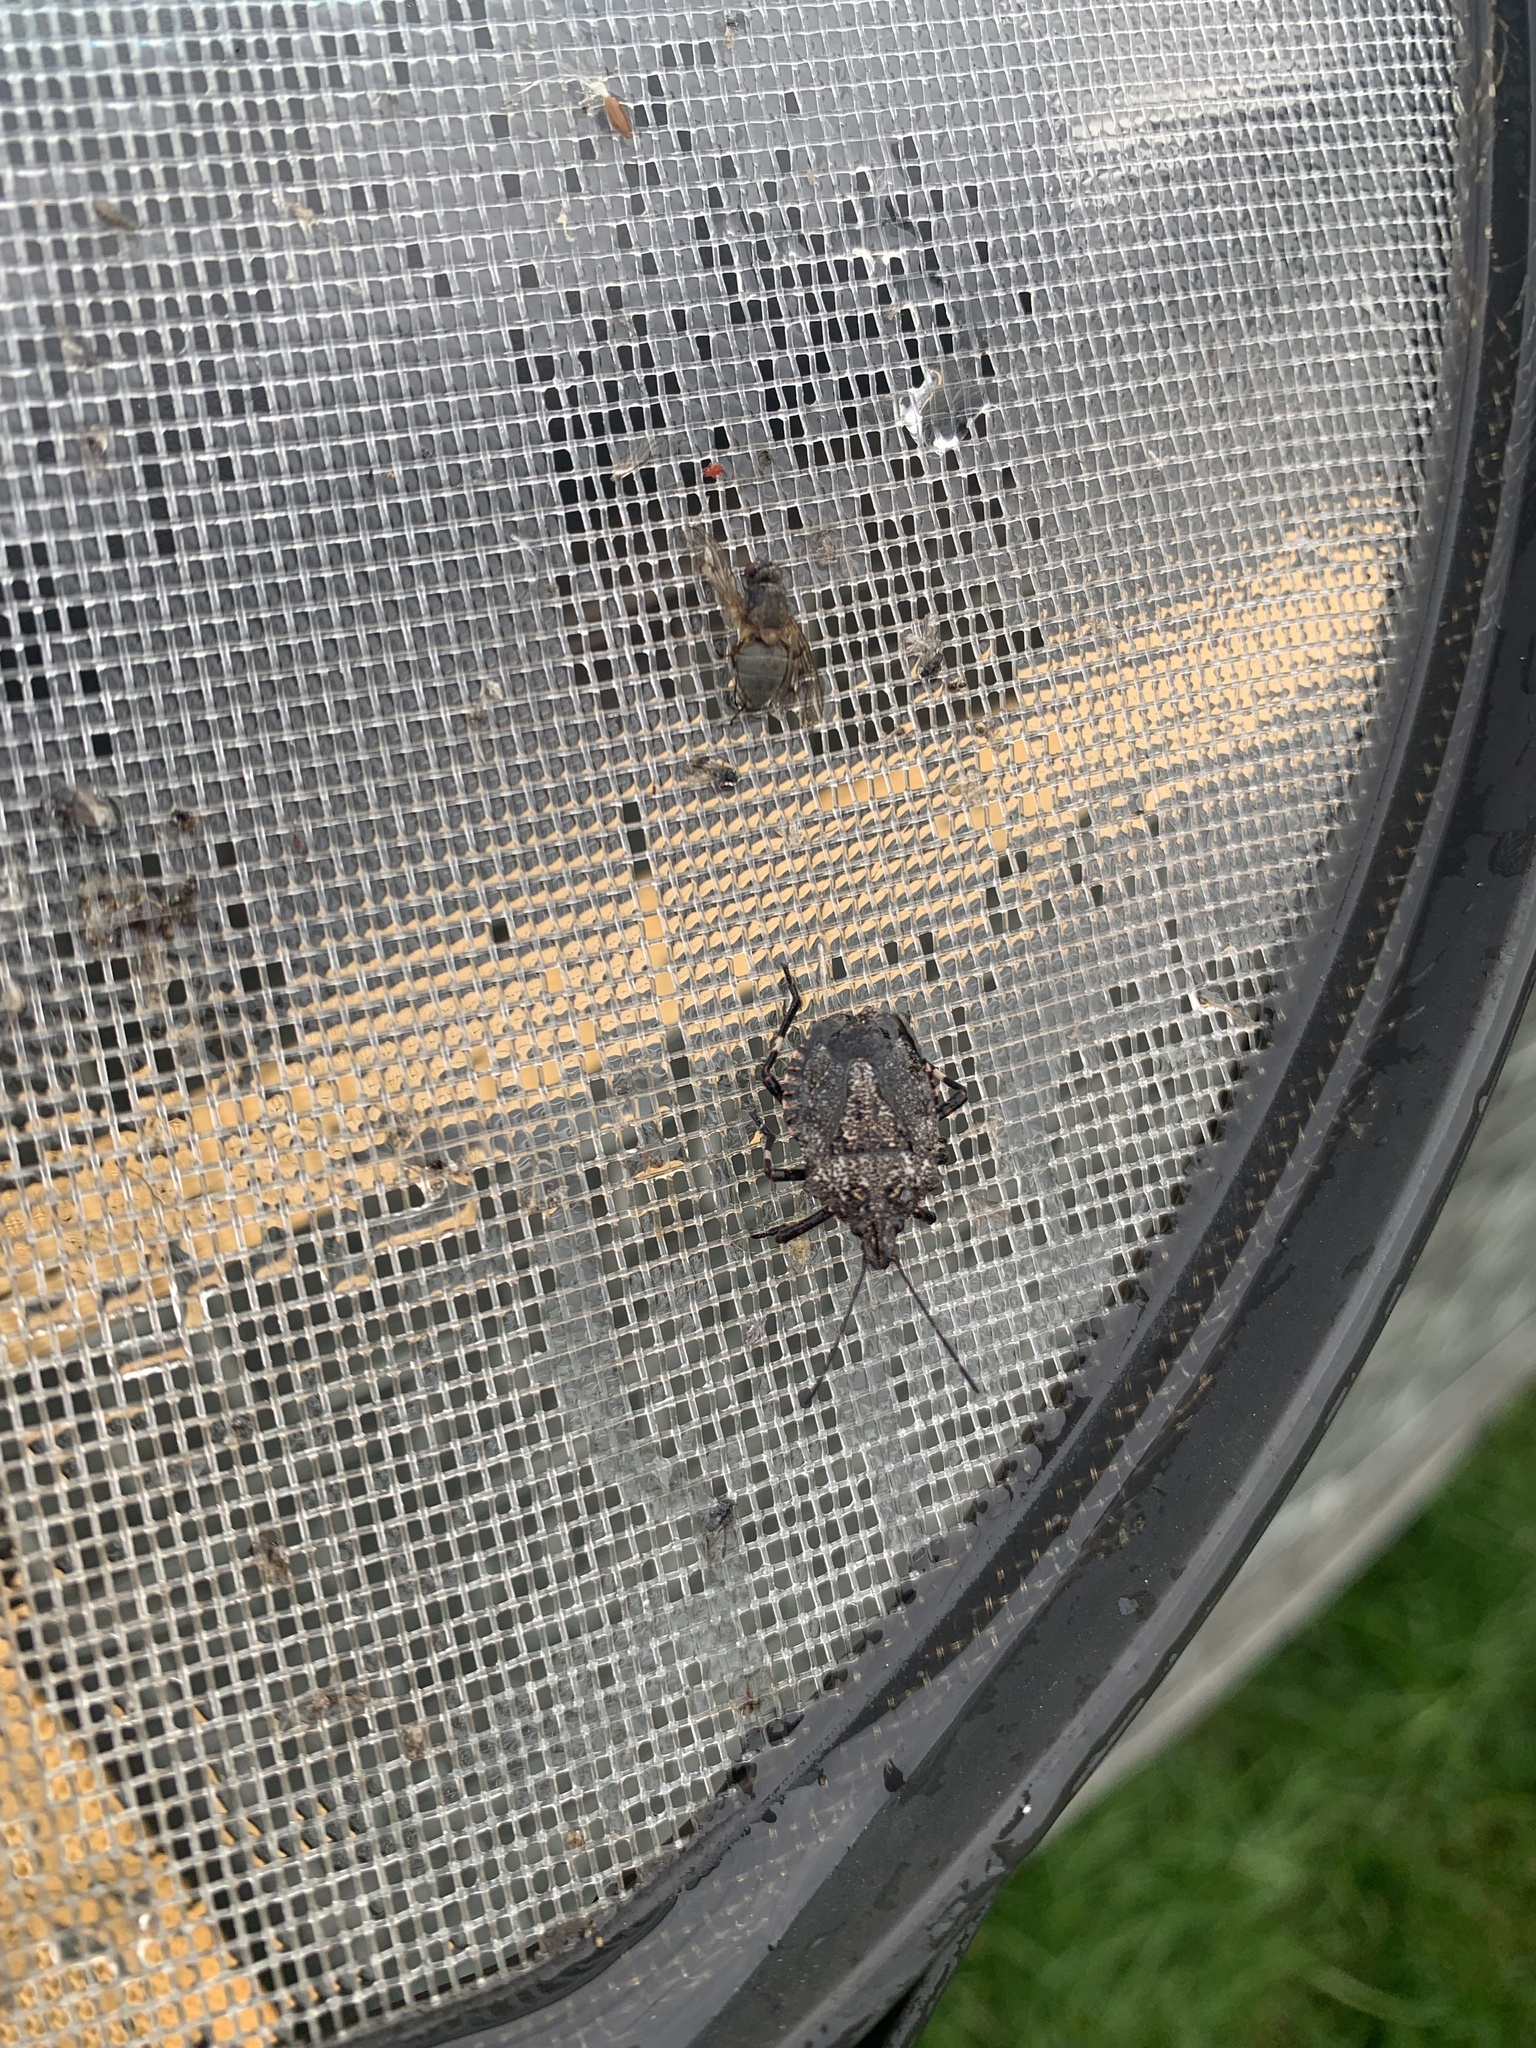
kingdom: Animalia
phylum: Arthropoda
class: Insecta
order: Hemiptera
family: Pentatomidae
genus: Brochymena
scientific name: Brochymena affinis
